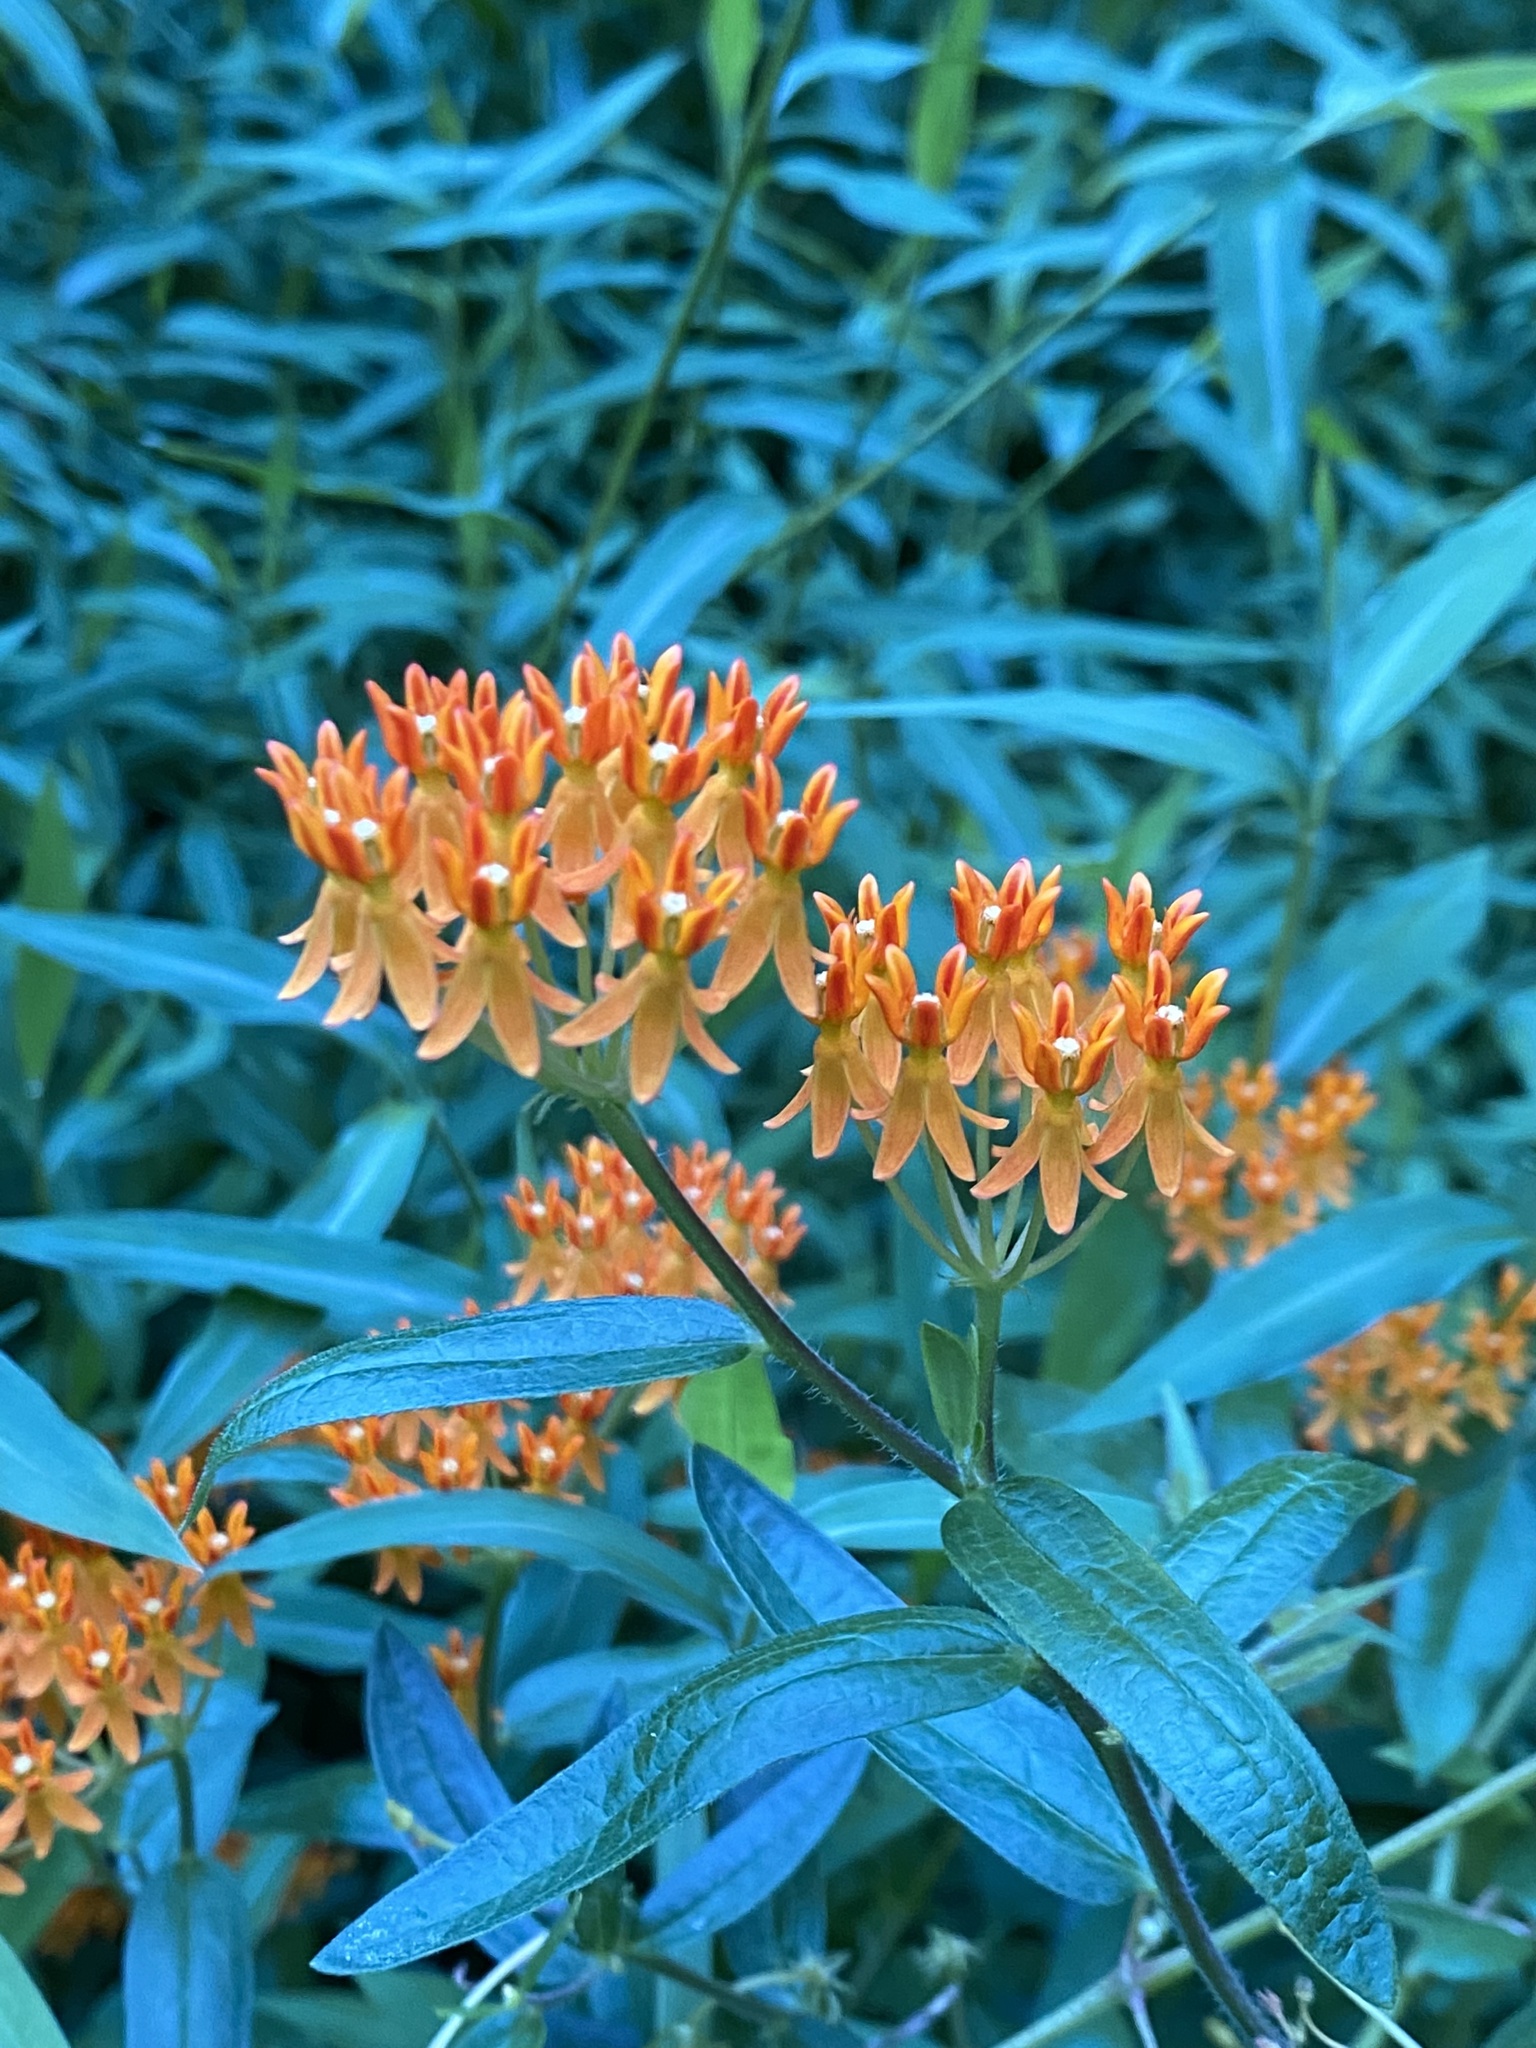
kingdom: Plantae
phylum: Tracheophyta
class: Magnoliopsida
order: Gentianales
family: Apocynaceae
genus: Asclepias
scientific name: Asclepias tuberosa
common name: Butterfly milkweed
